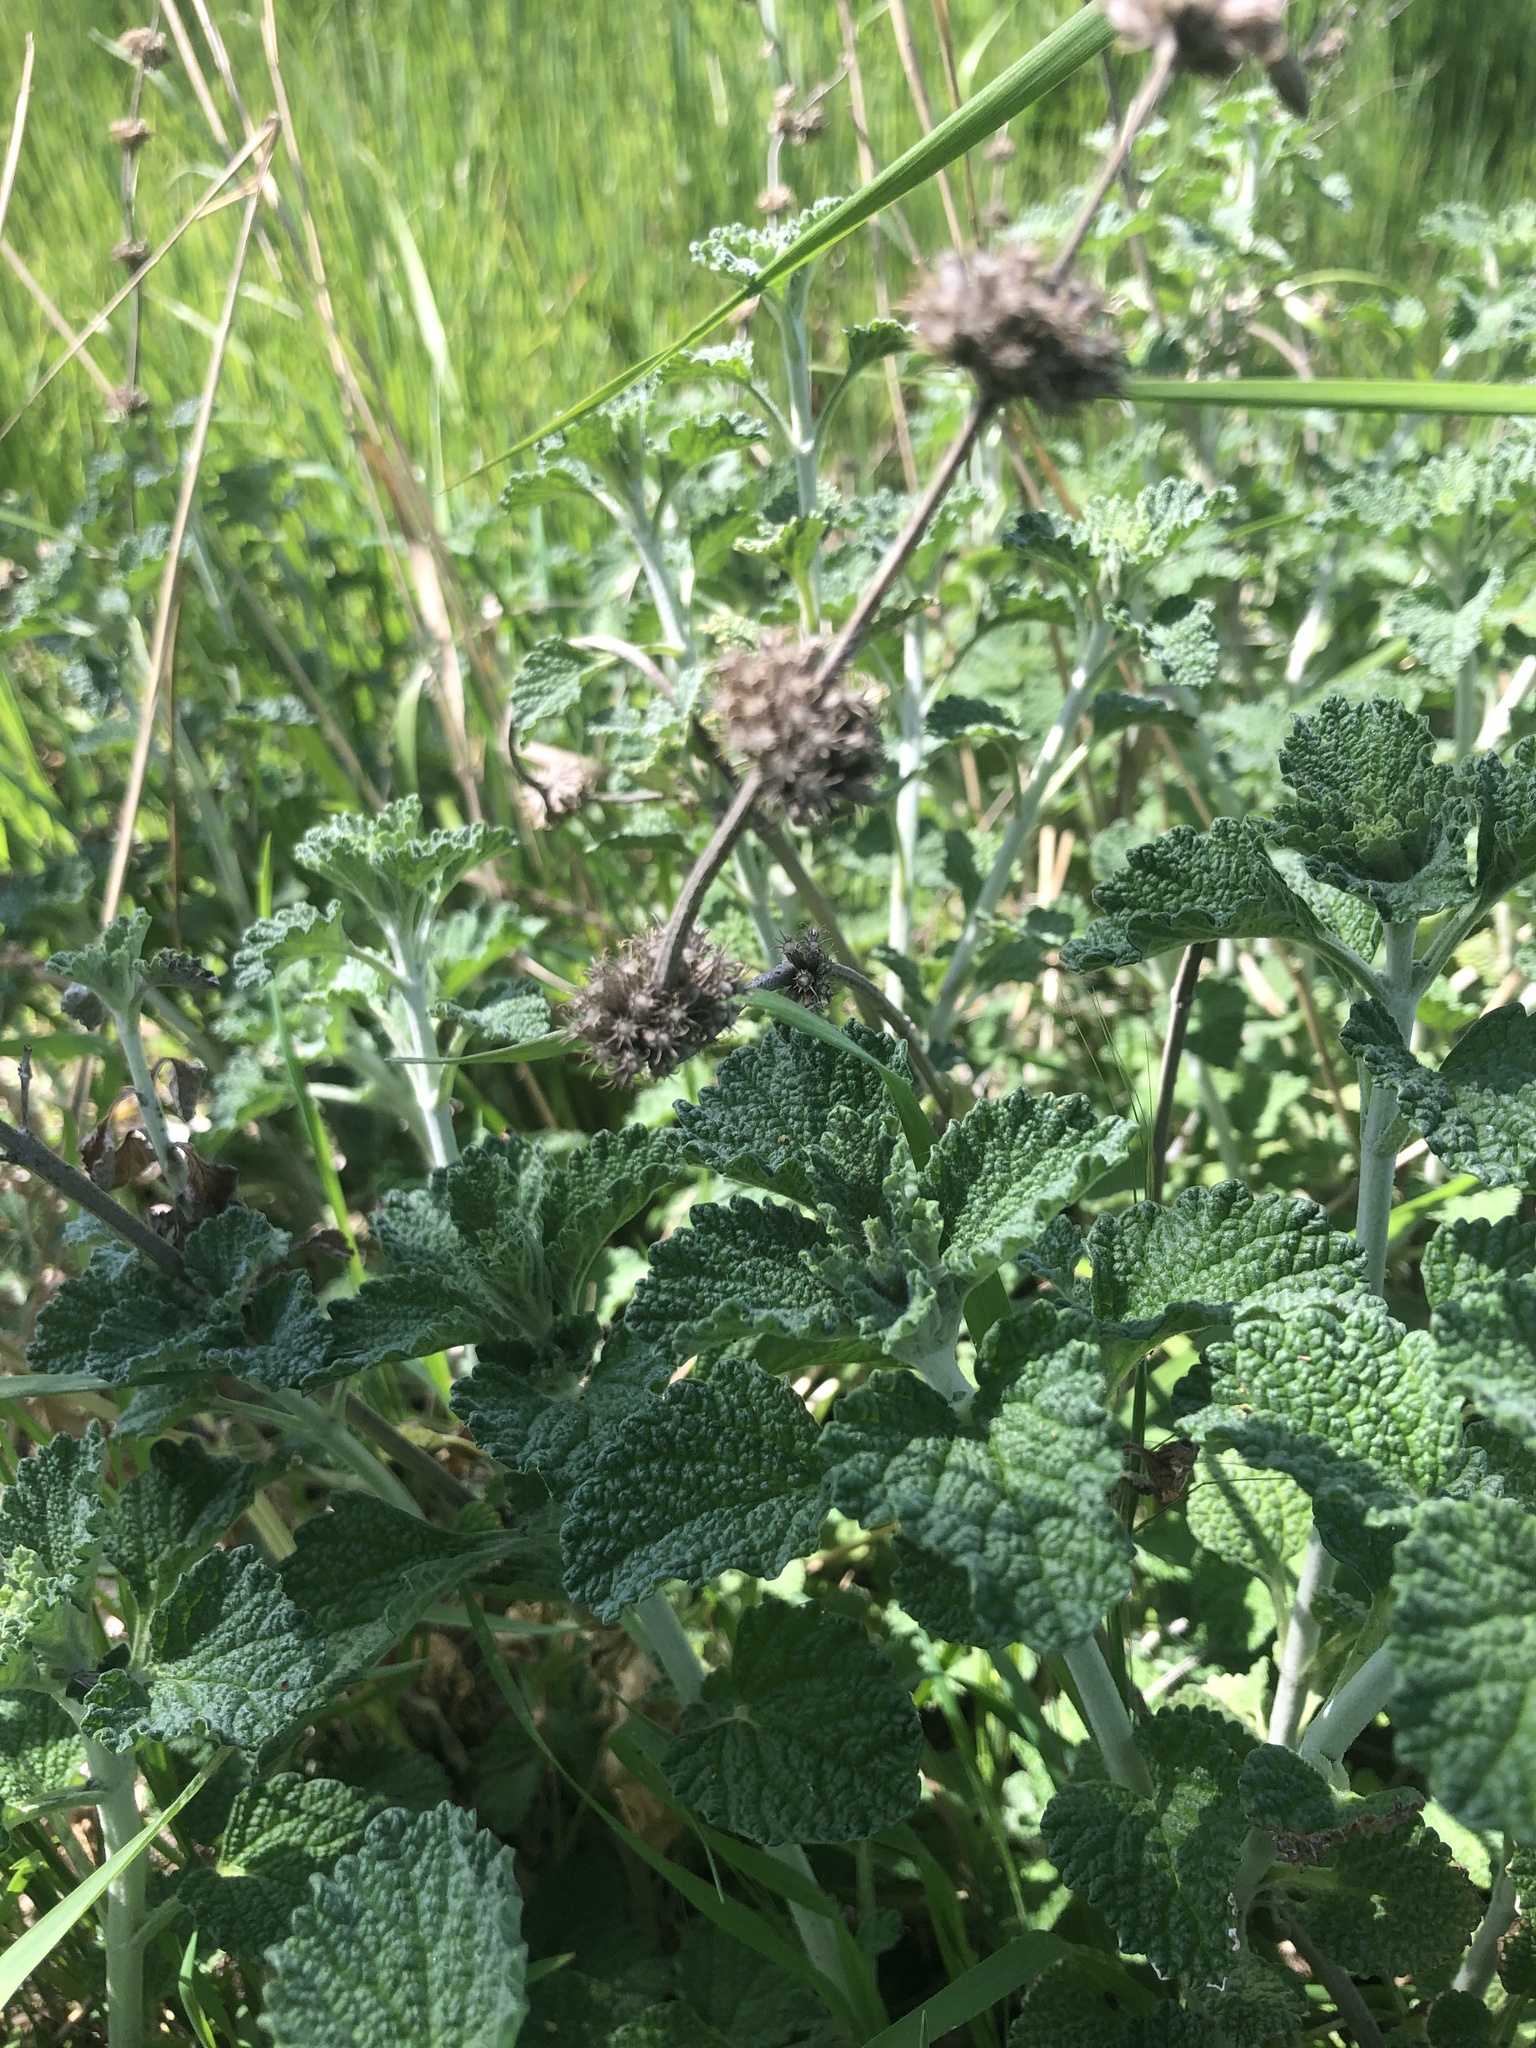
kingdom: Plantae
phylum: Tracheophyta
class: Magnoliopsida
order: Lamiales
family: Lamiaceae
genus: Marrubium
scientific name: Marrubium vulgare
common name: Horehound
